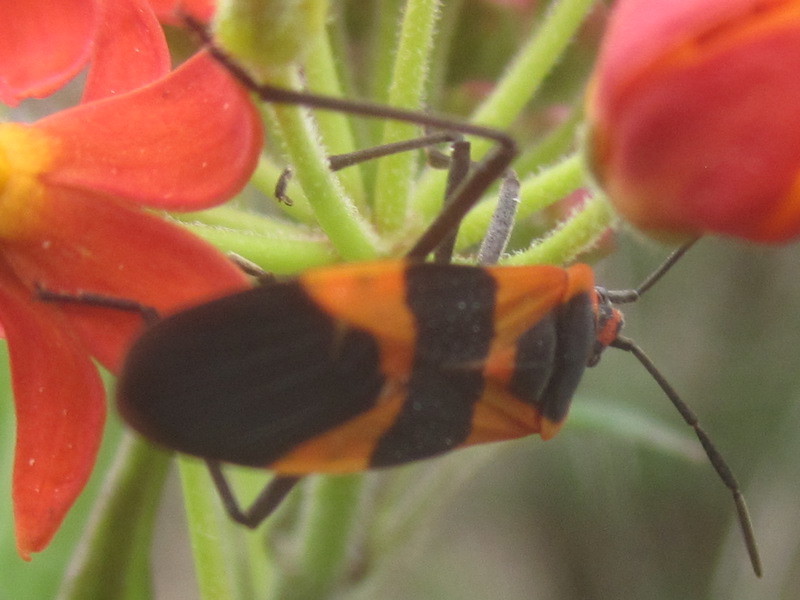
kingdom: Animalia
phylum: Arthropoda
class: Insecta
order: Hemiptera
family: Lygaeidae
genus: Oncopeltus
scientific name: Oncopeltus fasciatus
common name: Large milkweed bug
